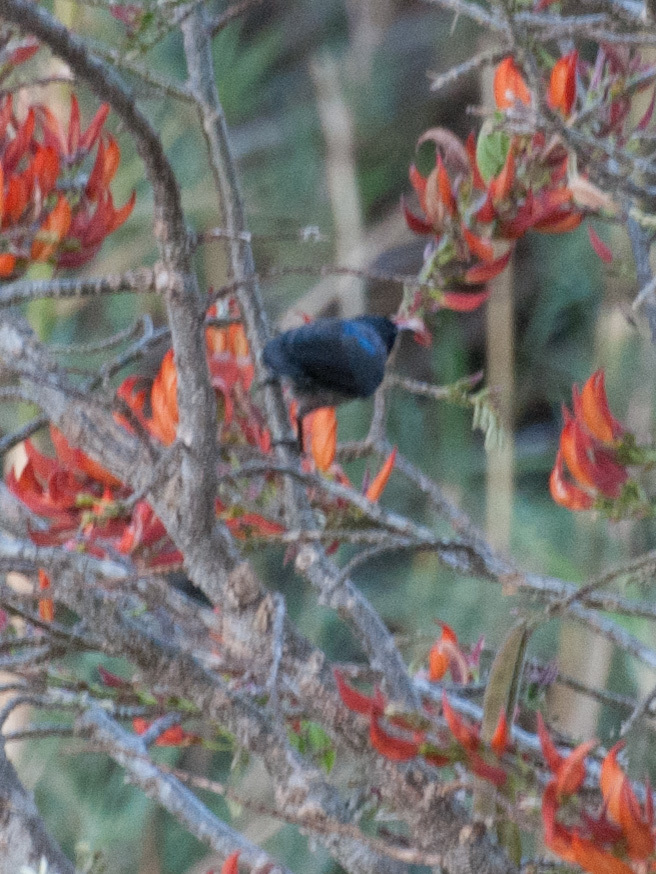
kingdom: Animalia
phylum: Chordata
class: Aves
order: Passeriformes
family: Nectariniidae
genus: Cinnyris
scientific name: Cinnyris notatus
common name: Malagasy green sunbird
